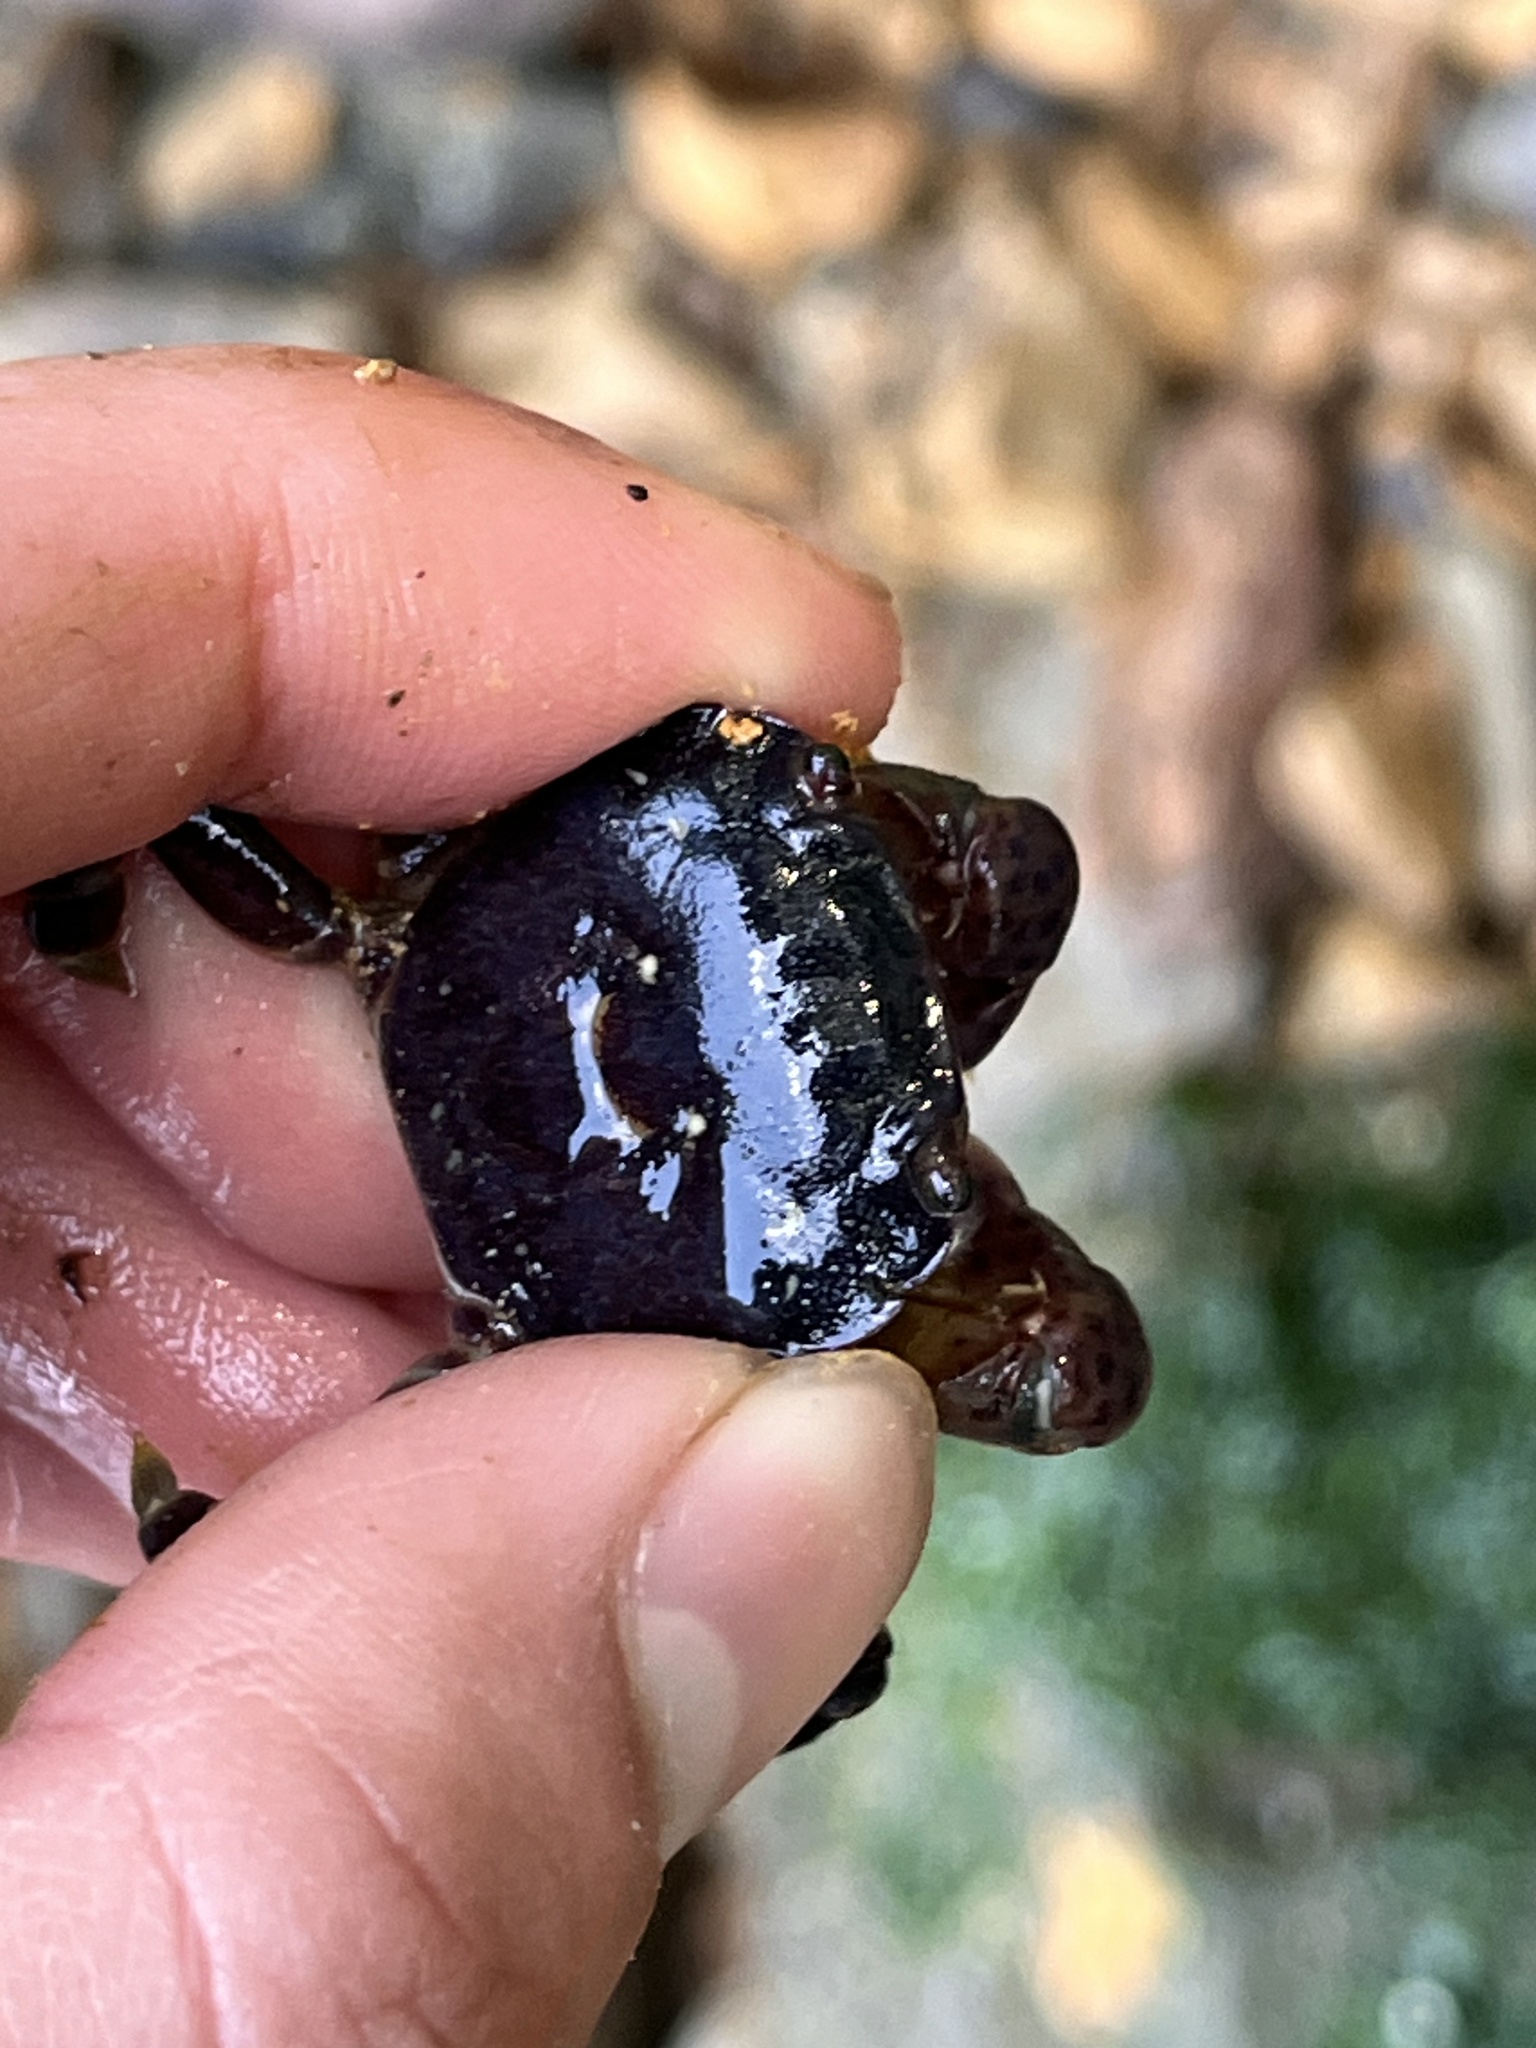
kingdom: Animalia
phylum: Arthropoda
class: Malacostraca
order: Decapoda
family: Varunidae
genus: Hemigrapsus
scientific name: Hemigrapsus nudus
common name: Purple shore crab
